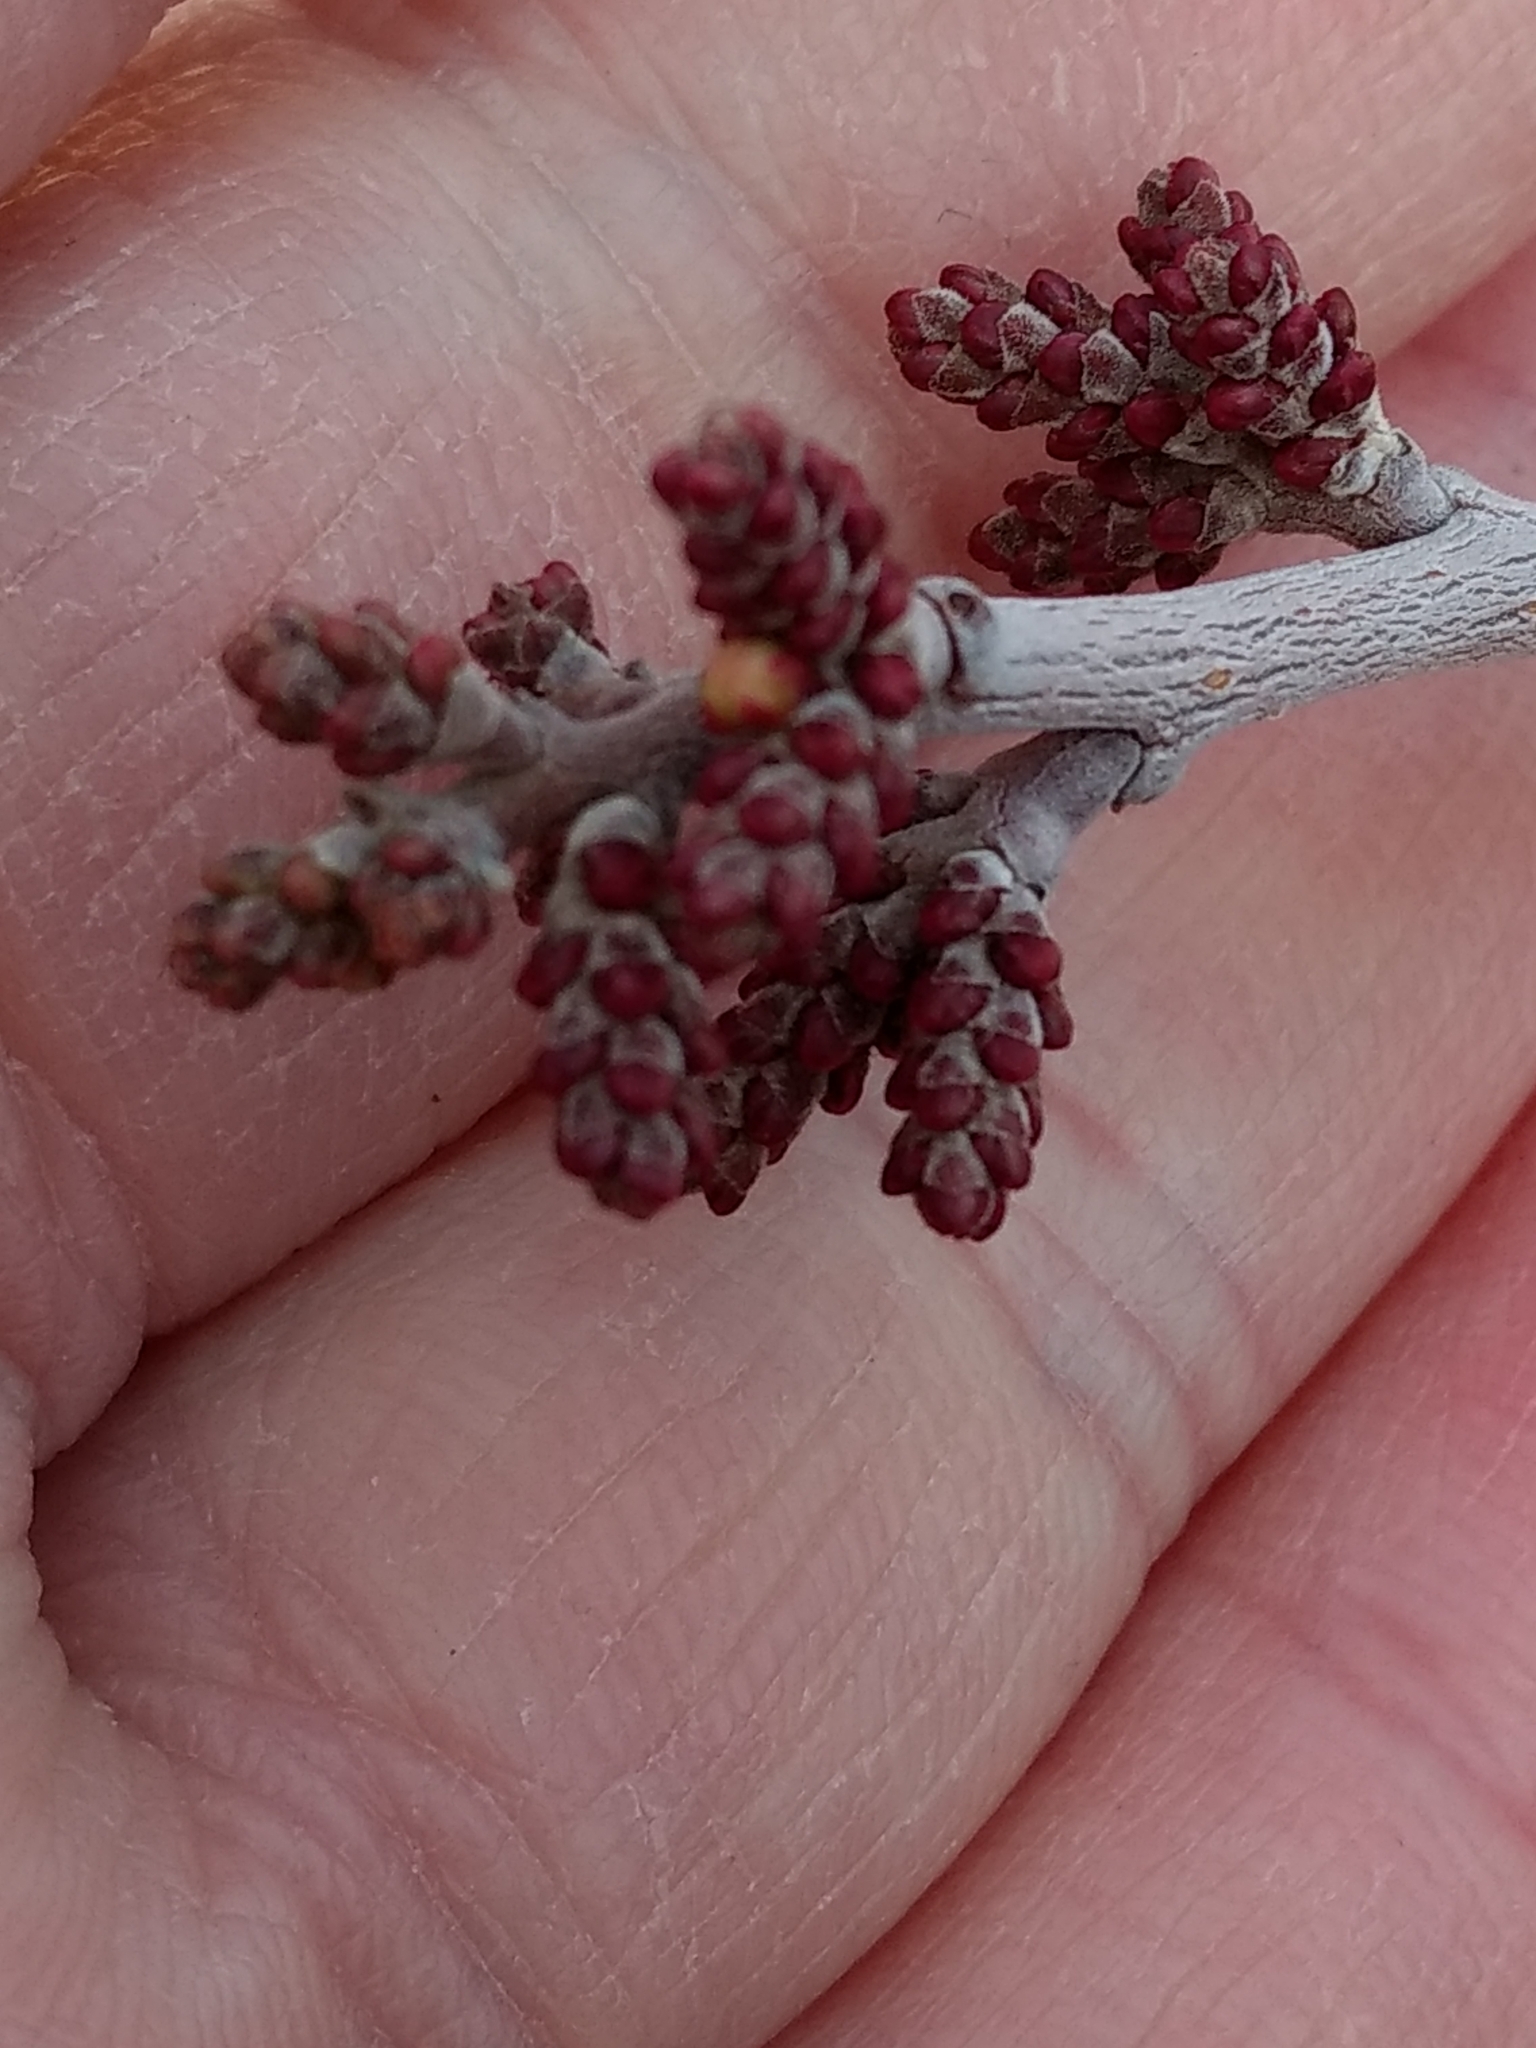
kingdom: Plantae
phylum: Tracheophyta
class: Magnoliopsida
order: Sapindales
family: Anacardiaceae
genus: Rhus
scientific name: Rhus aromatica
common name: Aromatic sumac
